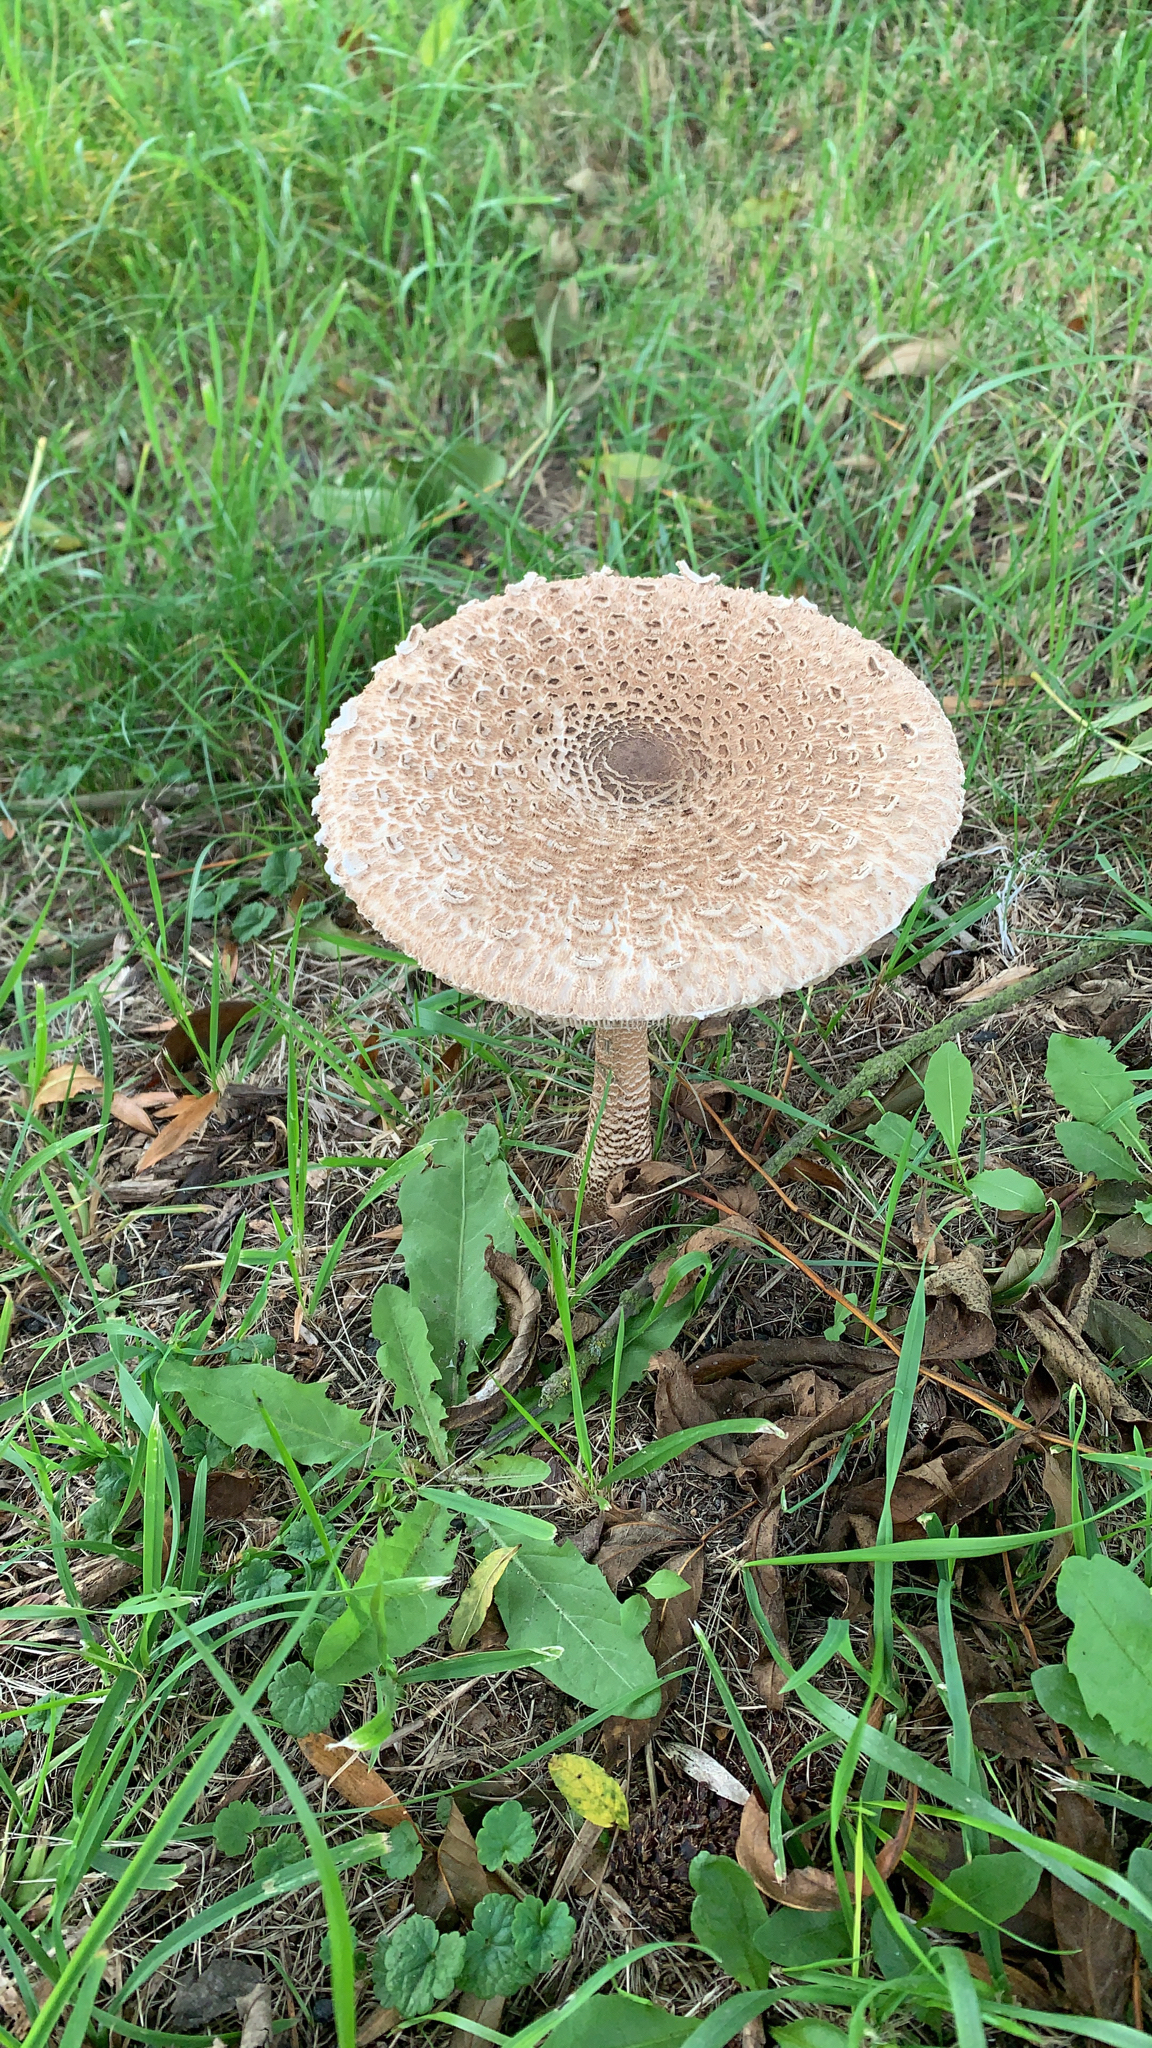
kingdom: Fungi
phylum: Basidiomycota
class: Agaricomycetes
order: Agaricales
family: Agaricaceae
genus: Macrolepiota
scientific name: Macrolepiota procera
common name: Parasol
